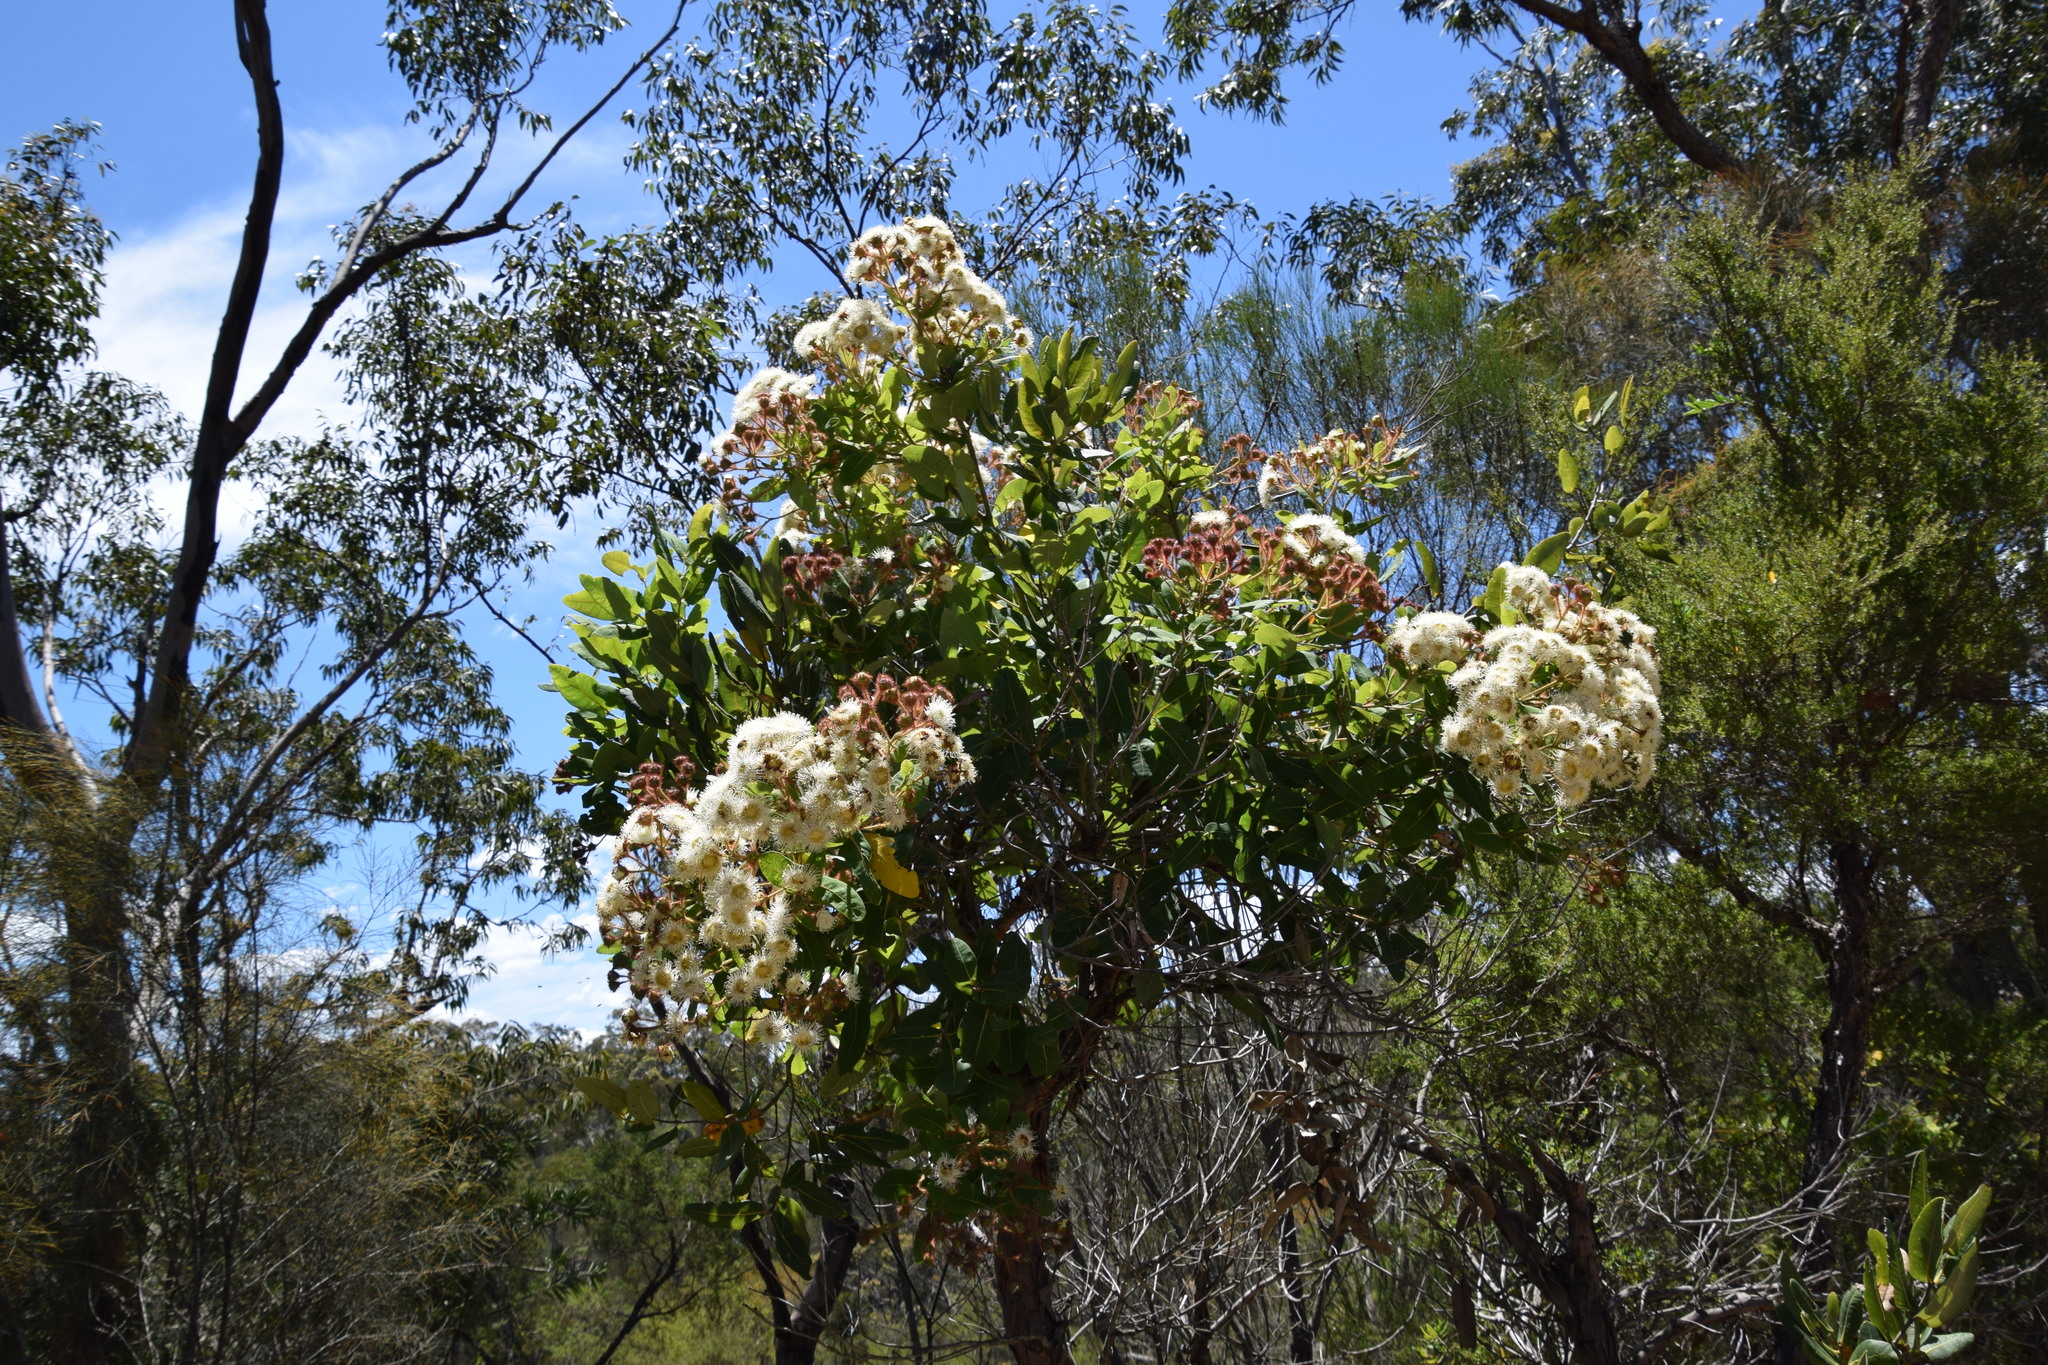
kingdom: Plantae
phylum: Tracheophyta
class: Magnoliopsida
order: Myrtales
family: Myrtaceae
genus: Angophora
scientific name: Angophora hispida
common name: Dwarf-apple
